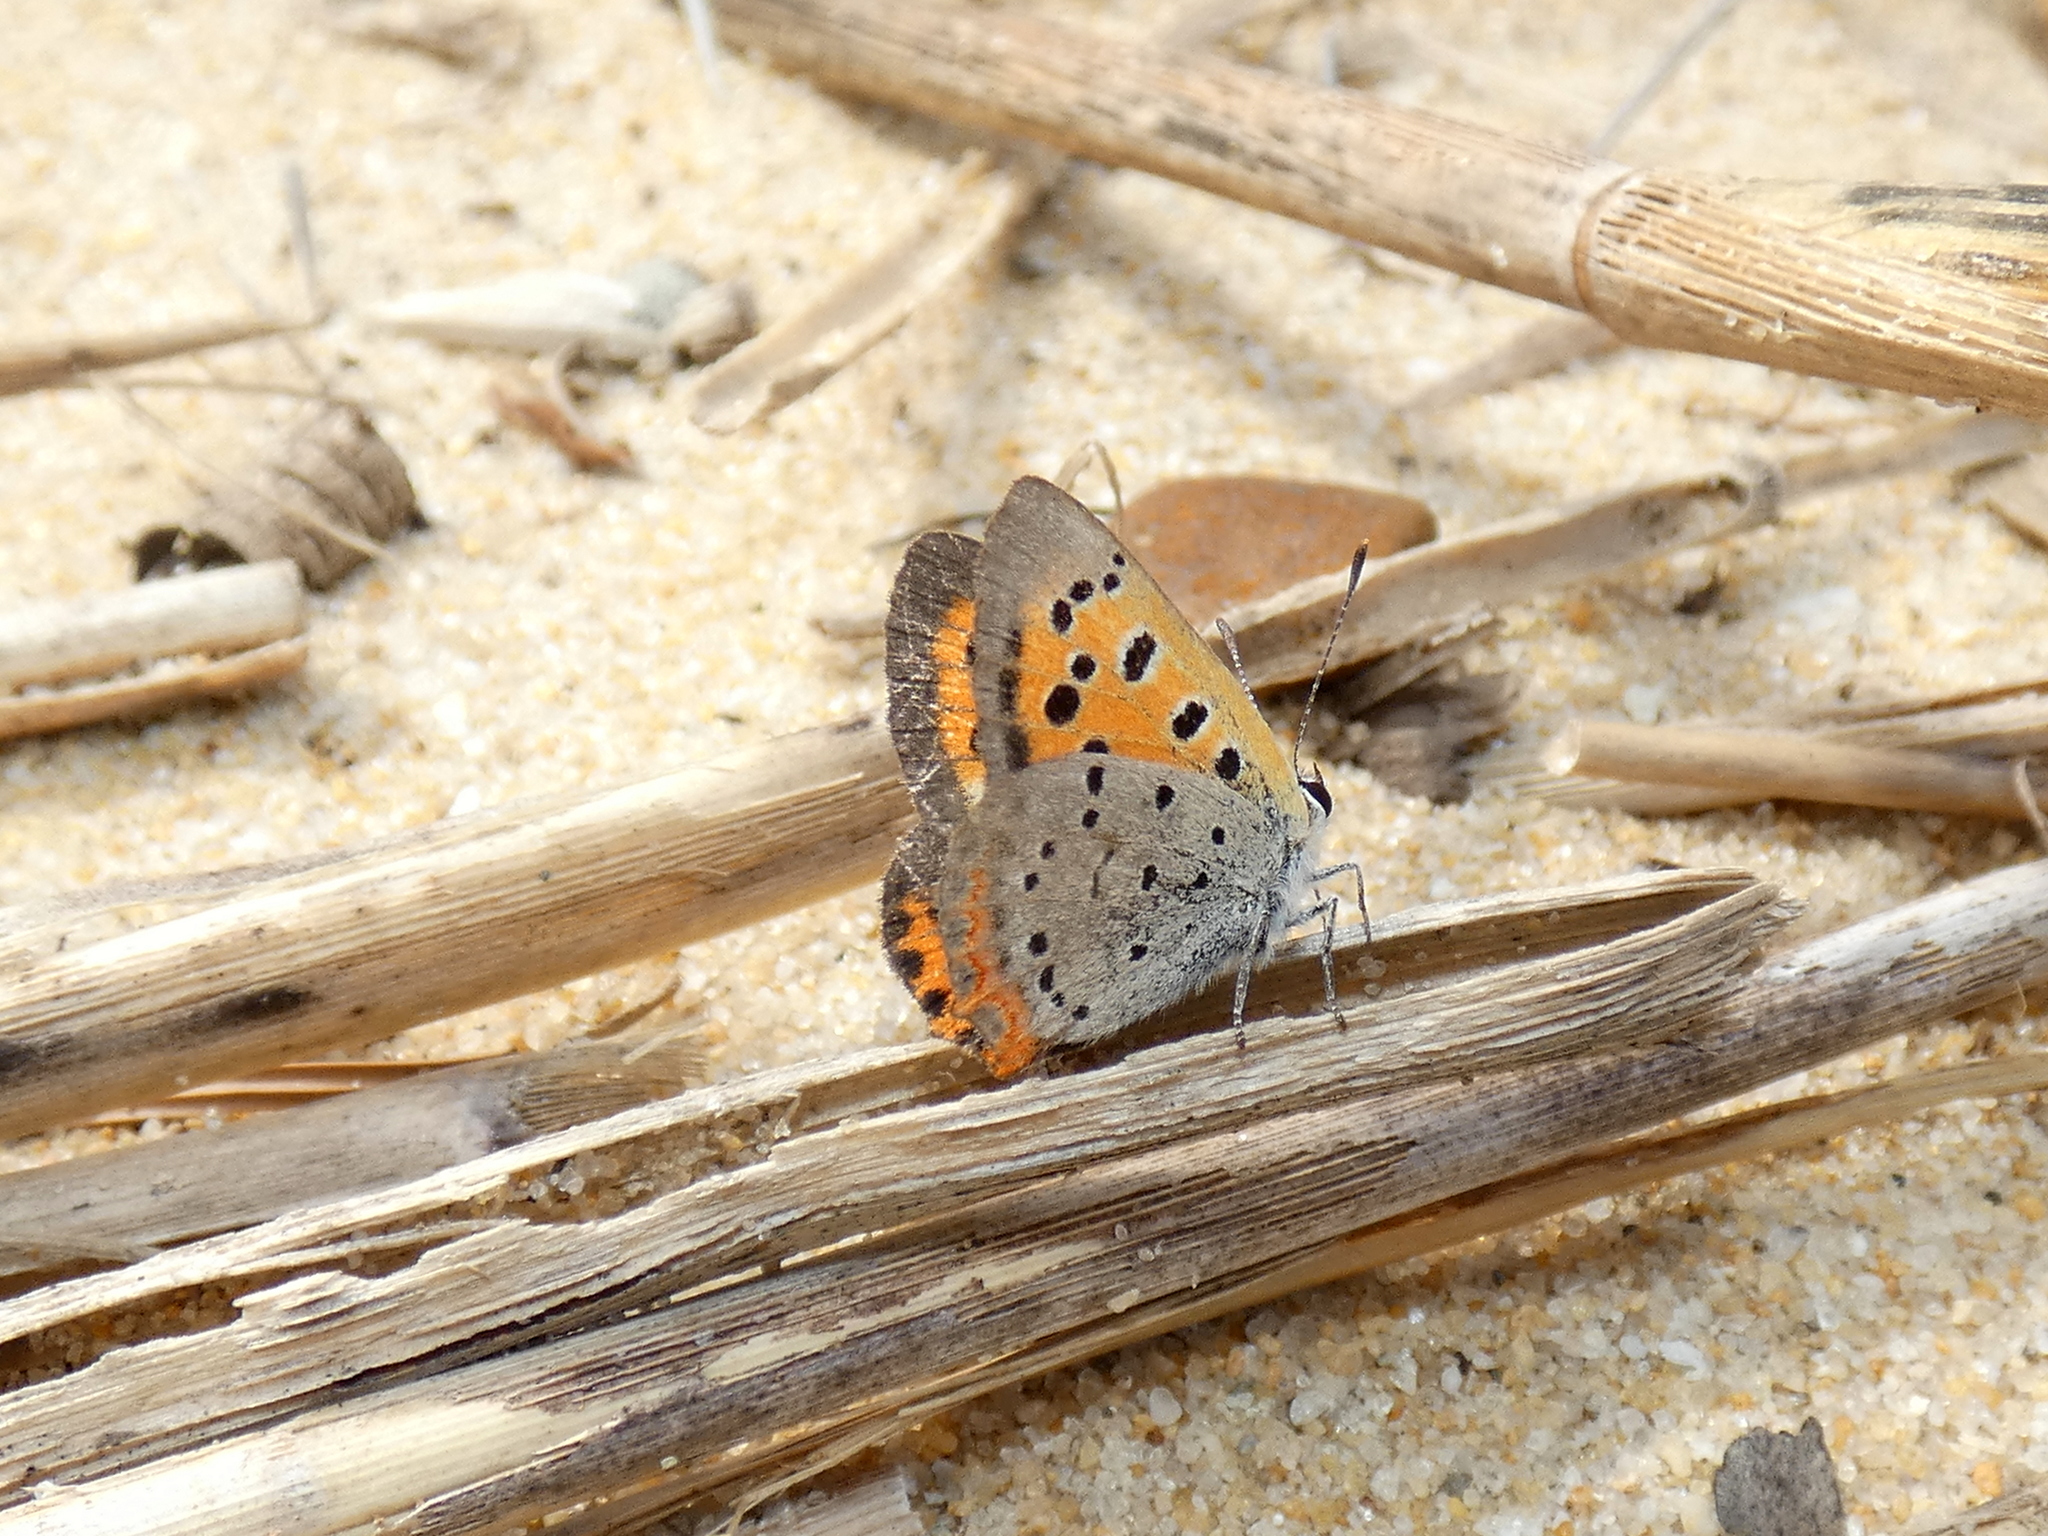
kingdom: Animalia
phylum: Arthropoda
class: Insecta
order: Lepidoptera
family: Lycaenidae
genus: Lycaena
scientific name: Lycaena hypophlaeas
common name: American copper
